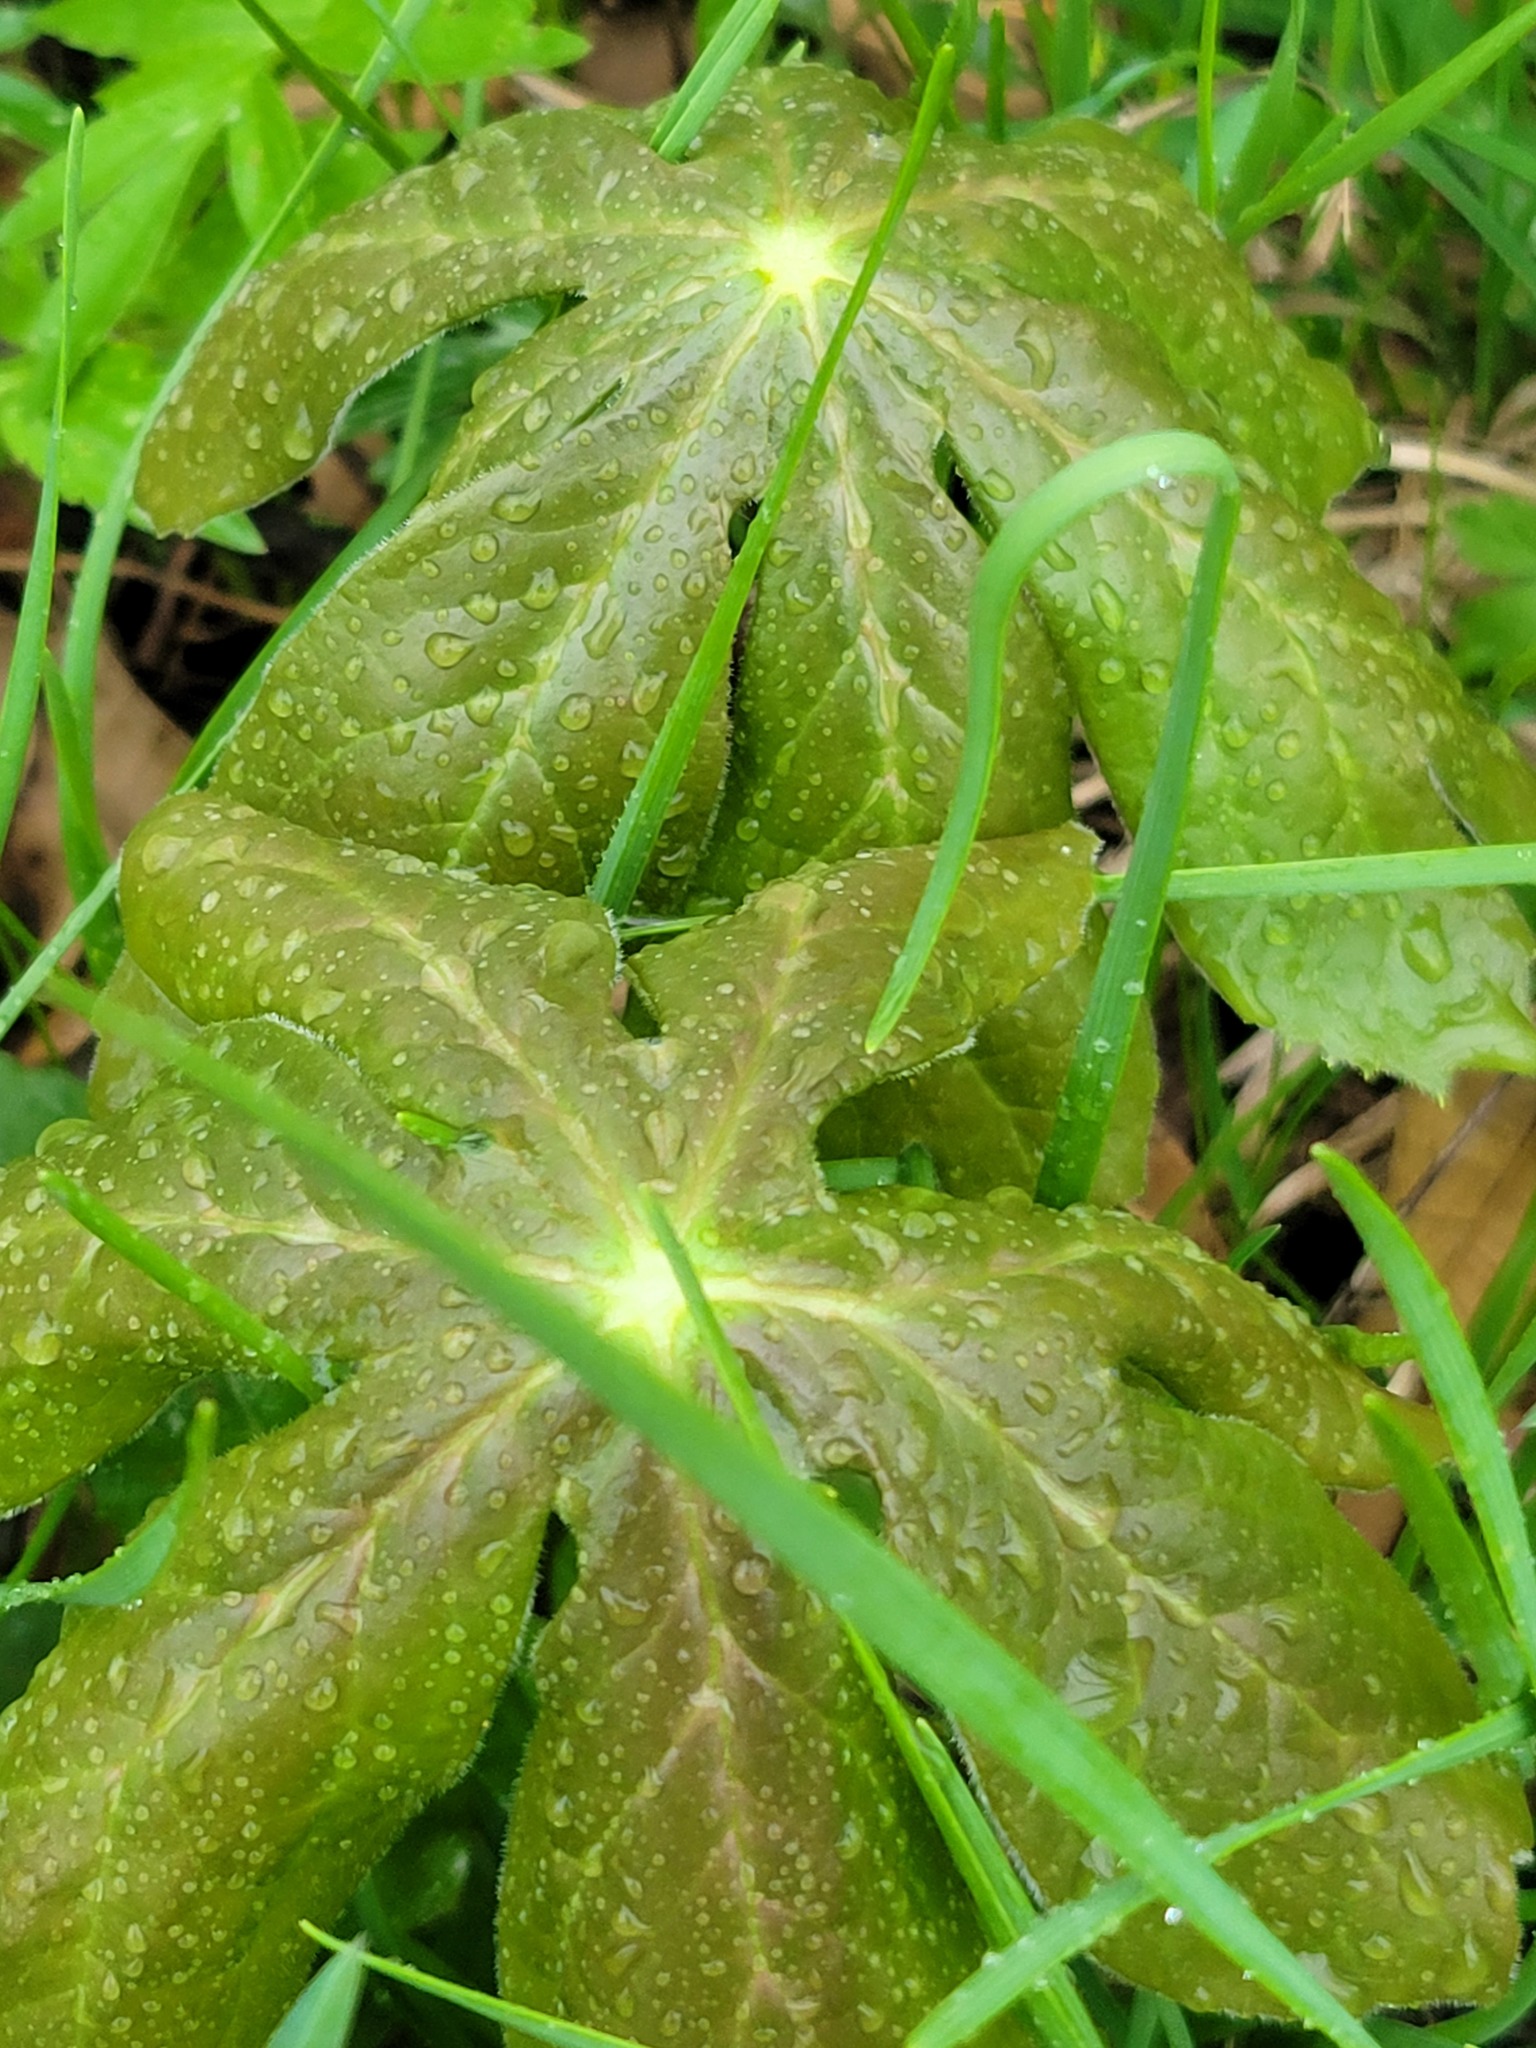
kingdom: Plantae
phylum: Tracheophyta
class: Magnoliopsida
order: Ranunculales
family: Berberidaceae
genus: Podophyllum
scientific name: Podophyllum peltatum
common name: Wild mandrake
